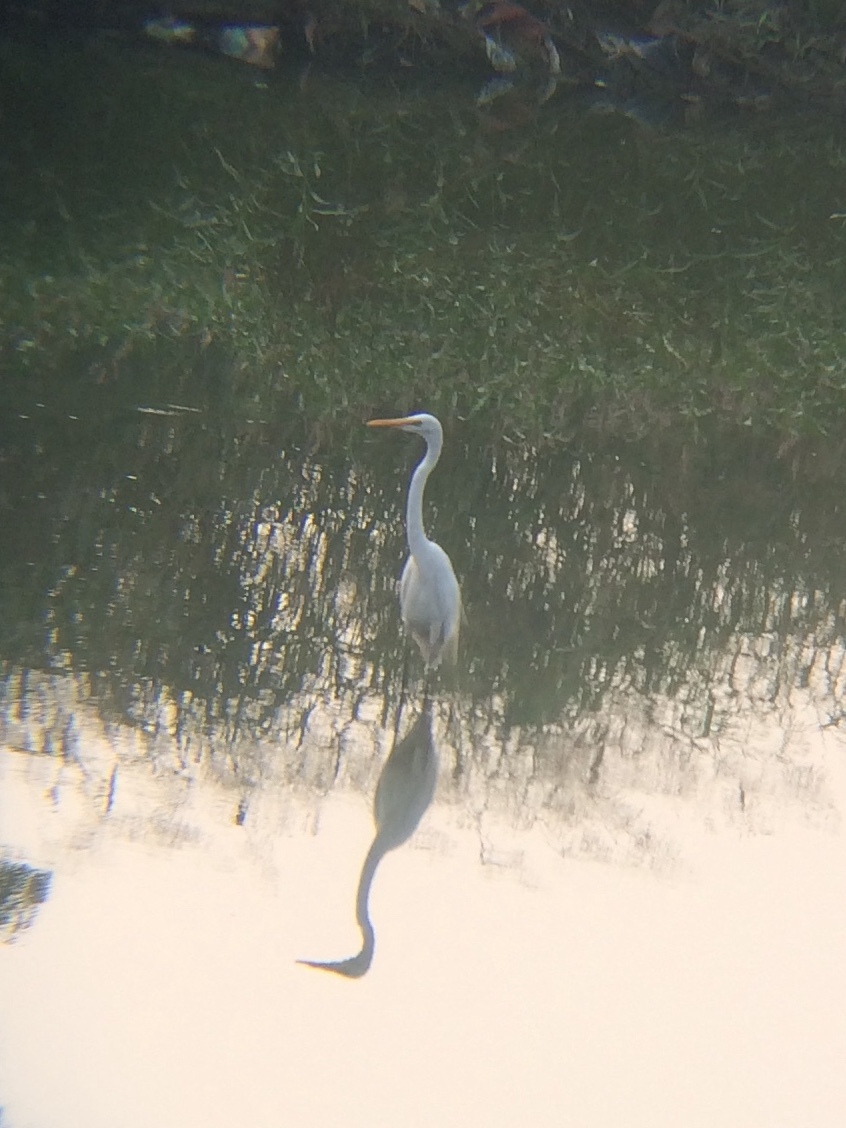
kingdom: Animalia
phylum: Chordata
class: Aves
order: Pelecaniformes
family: Ardeidae
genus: Ardea
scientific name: Ardea alba
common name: Great egret
